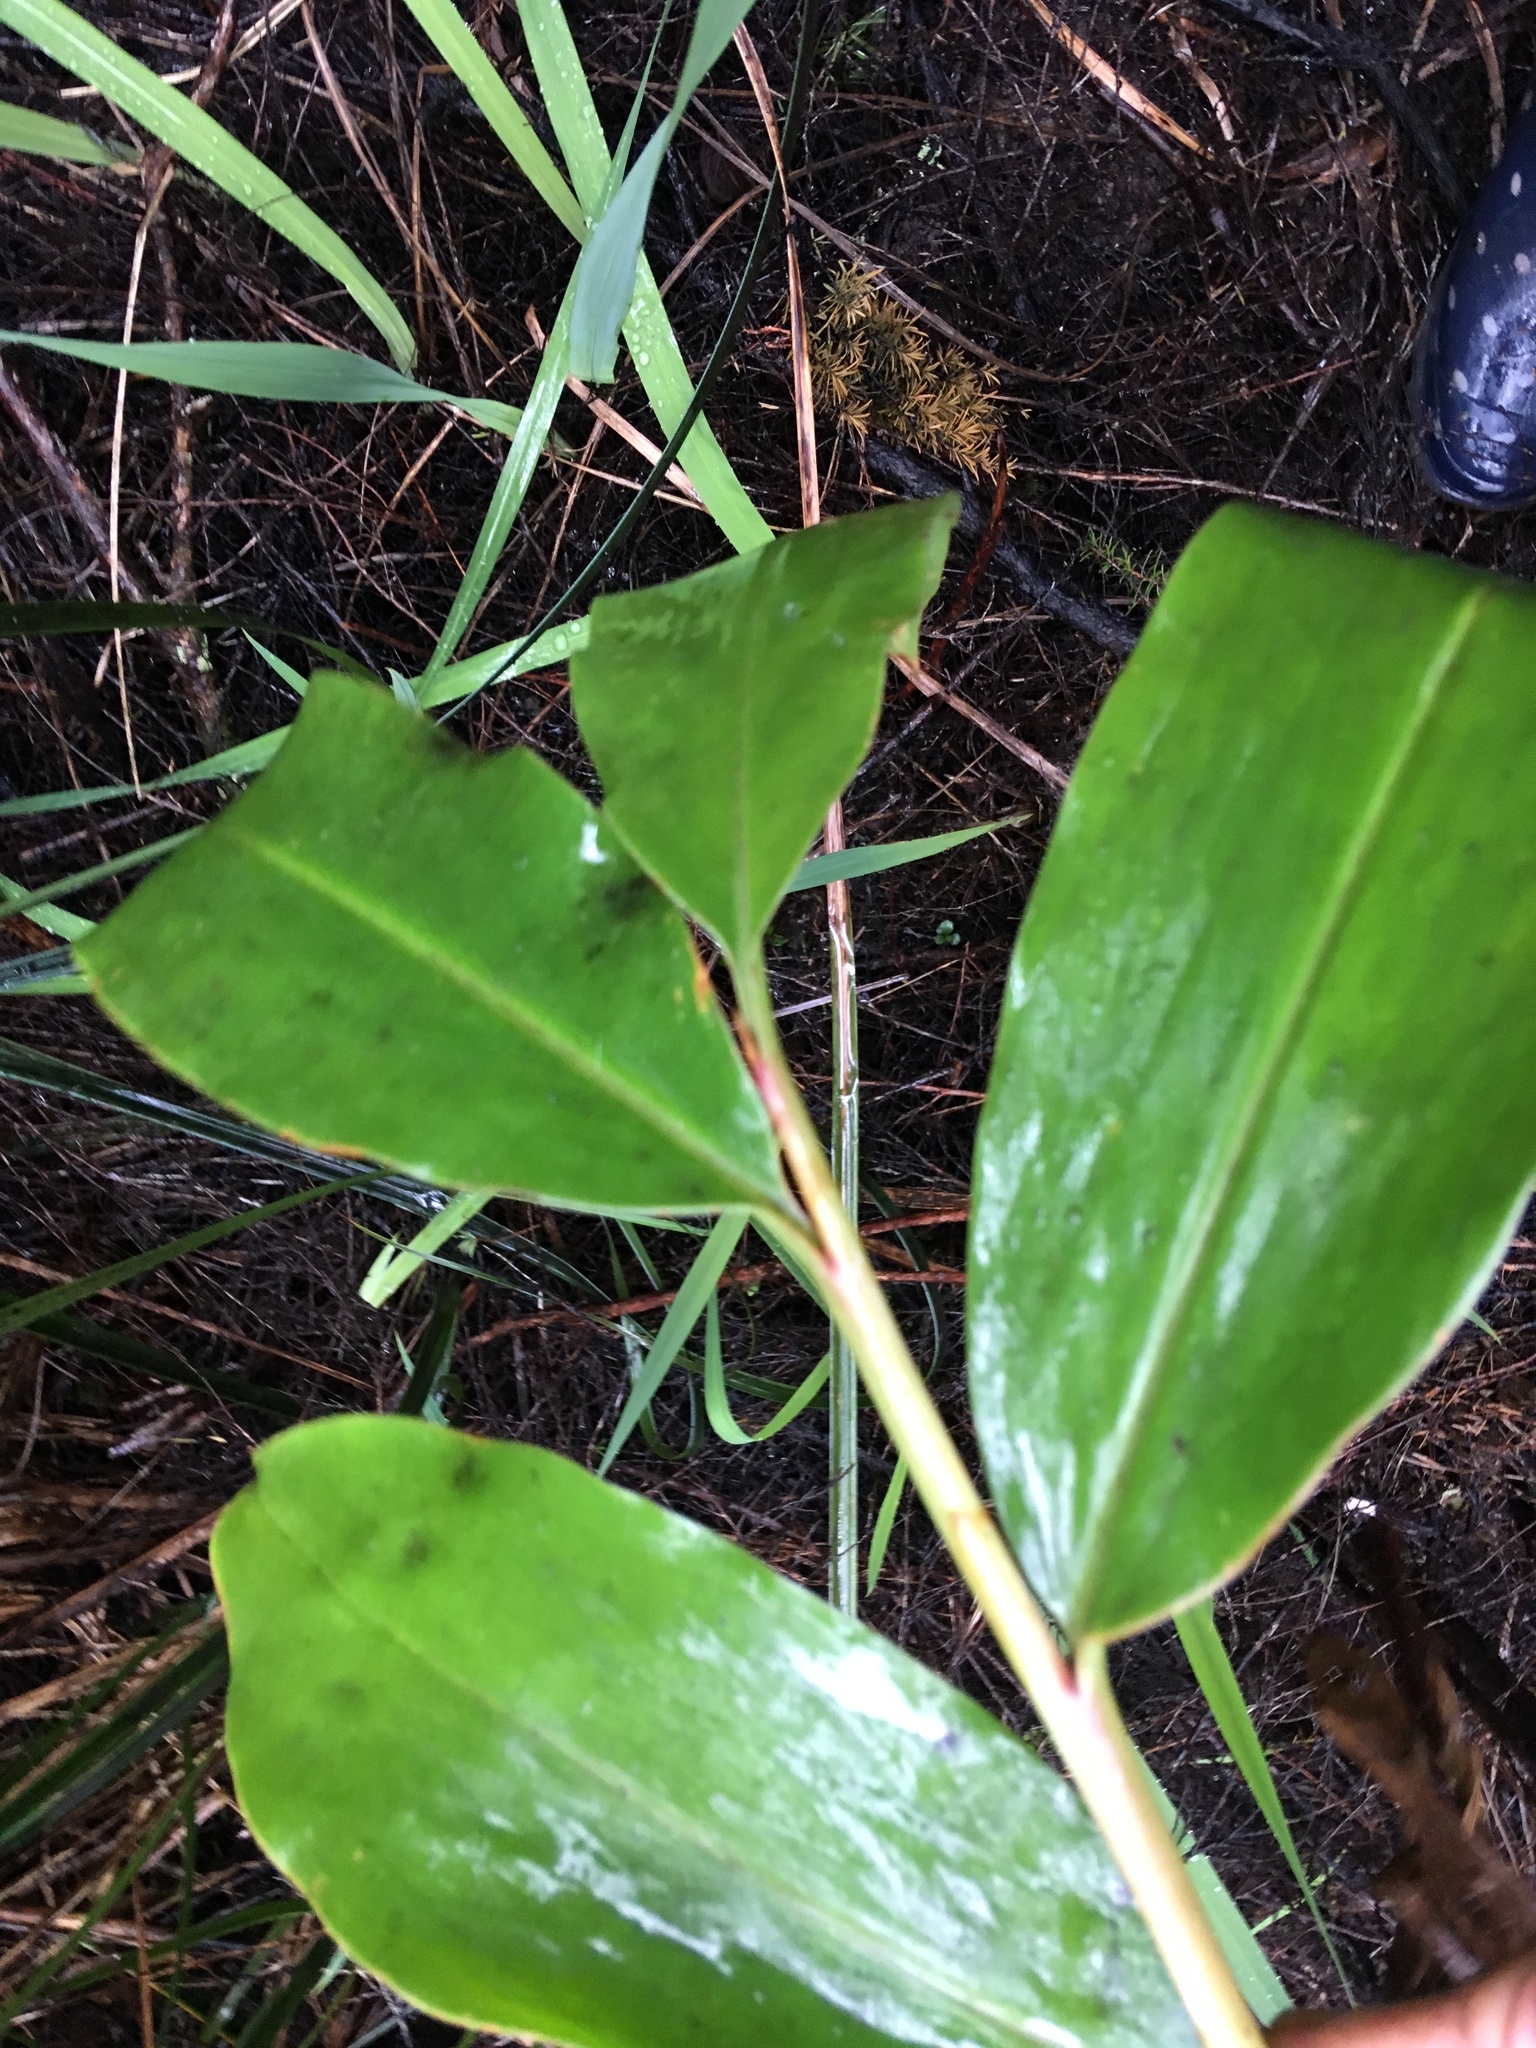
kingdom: Plantae
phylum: Tracheophyta
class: Liliopsida
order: Zingiberales
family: Zingiberaceae
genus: Hedychium
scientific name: Hedychium gardnerianum
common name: Himalayan ginger
